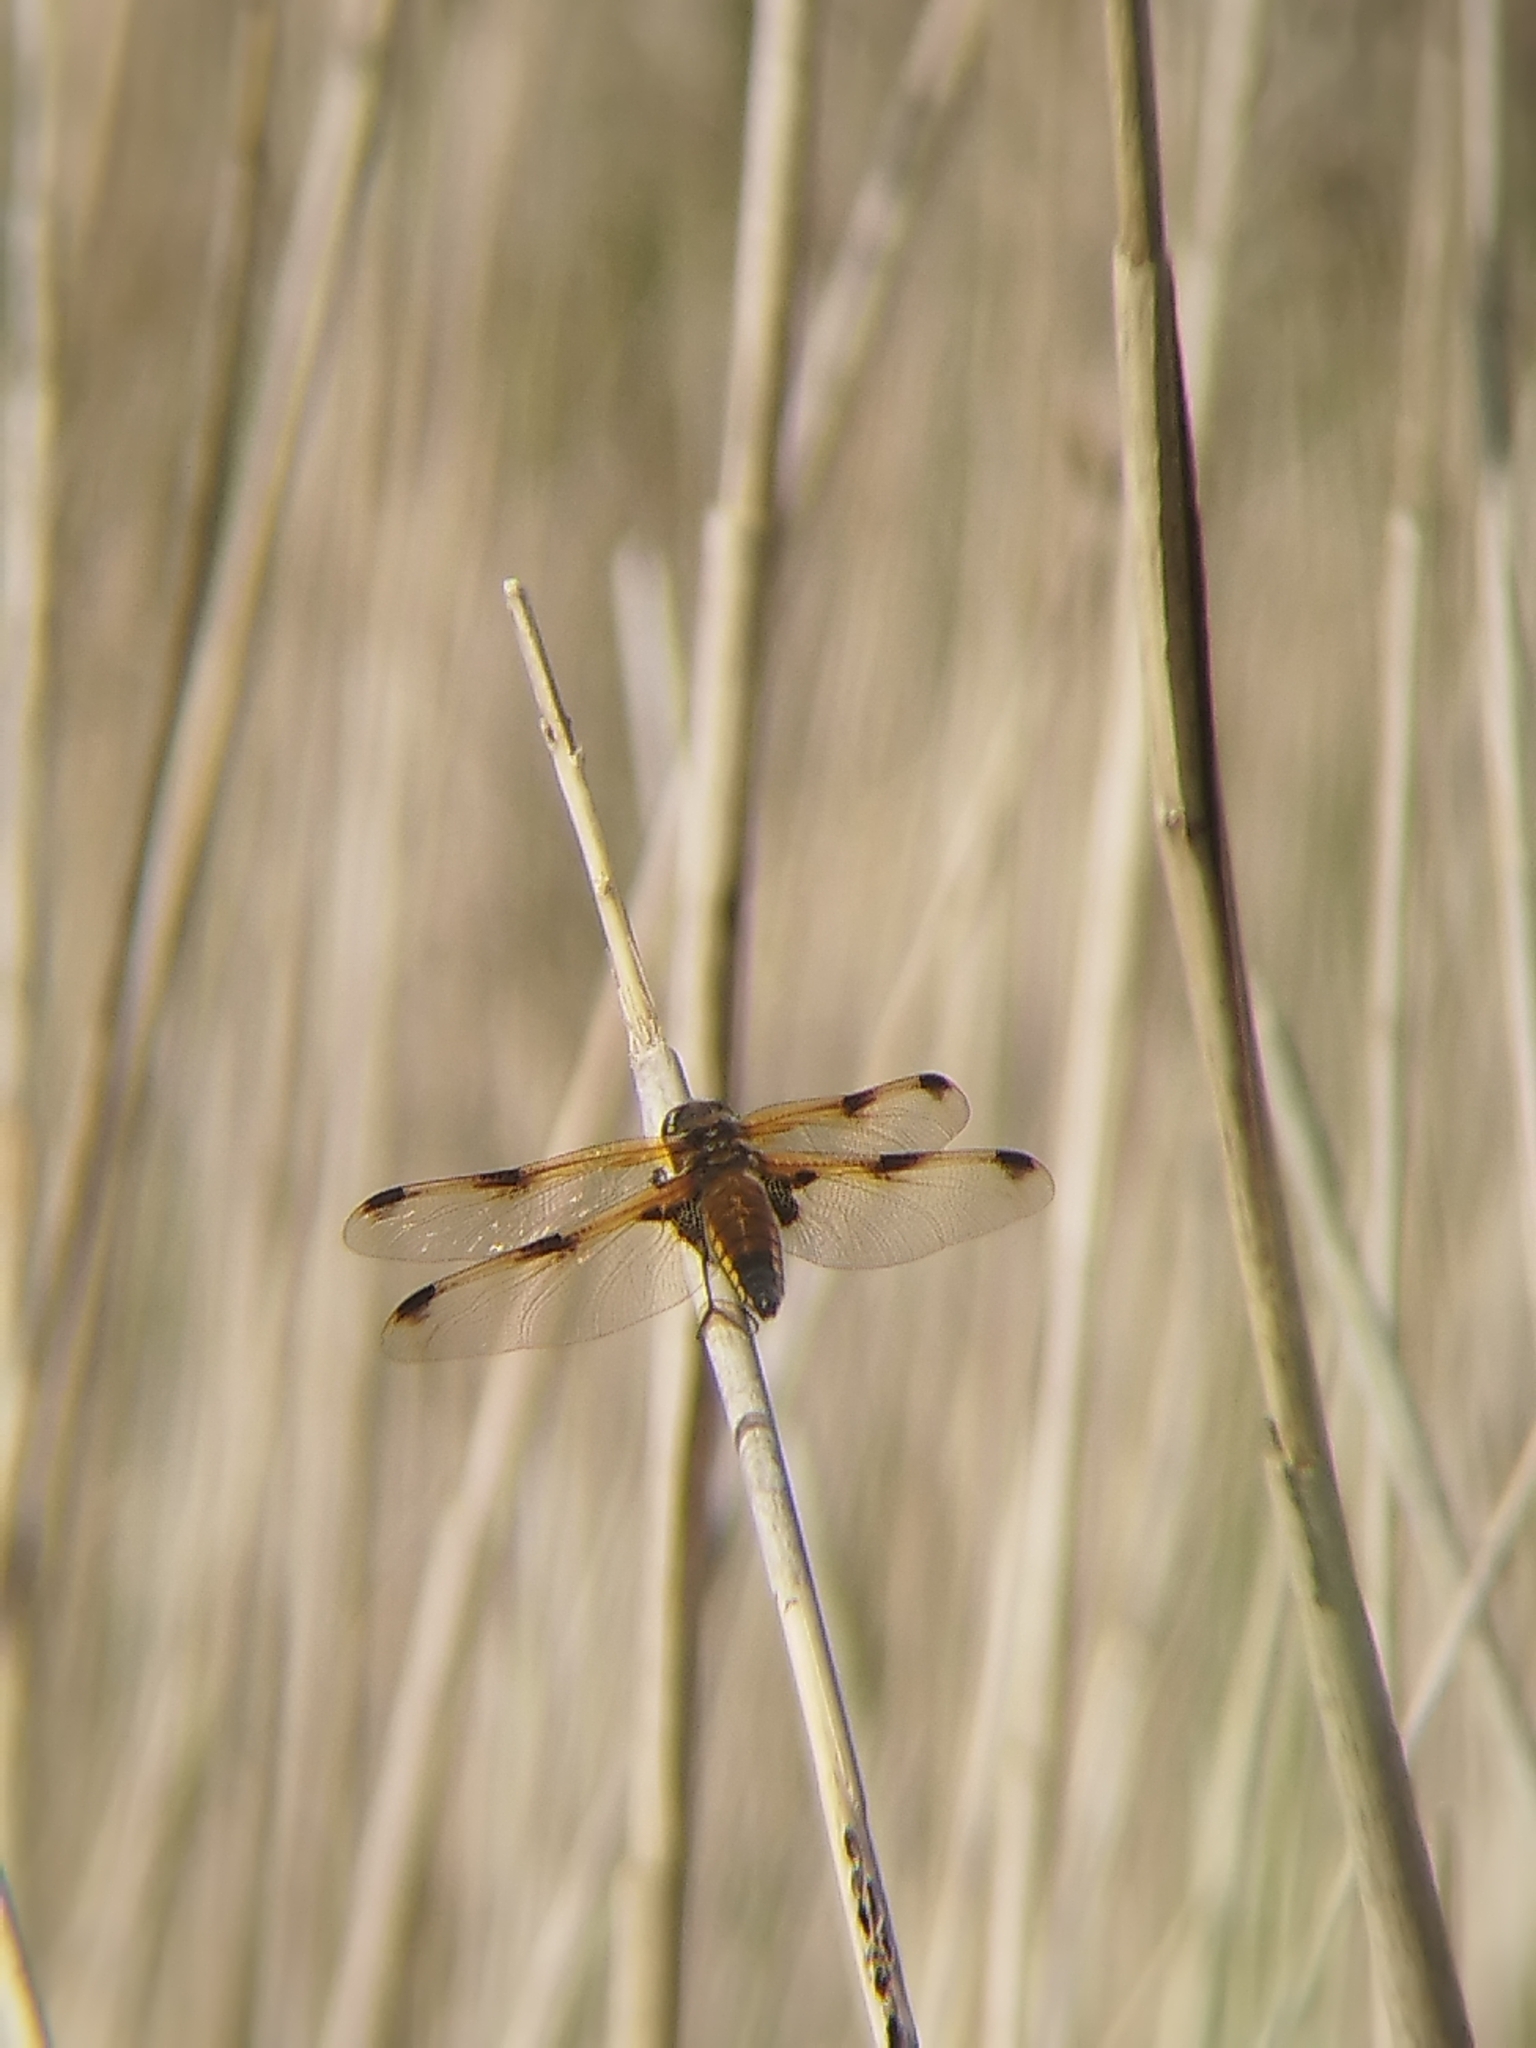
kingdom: Animalia
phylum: Arthropoda
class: Insecta
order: Odonata
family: Libellulidae
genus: Libellula
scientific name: Libellula quadrimaculata
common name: Four-spotted chaser
